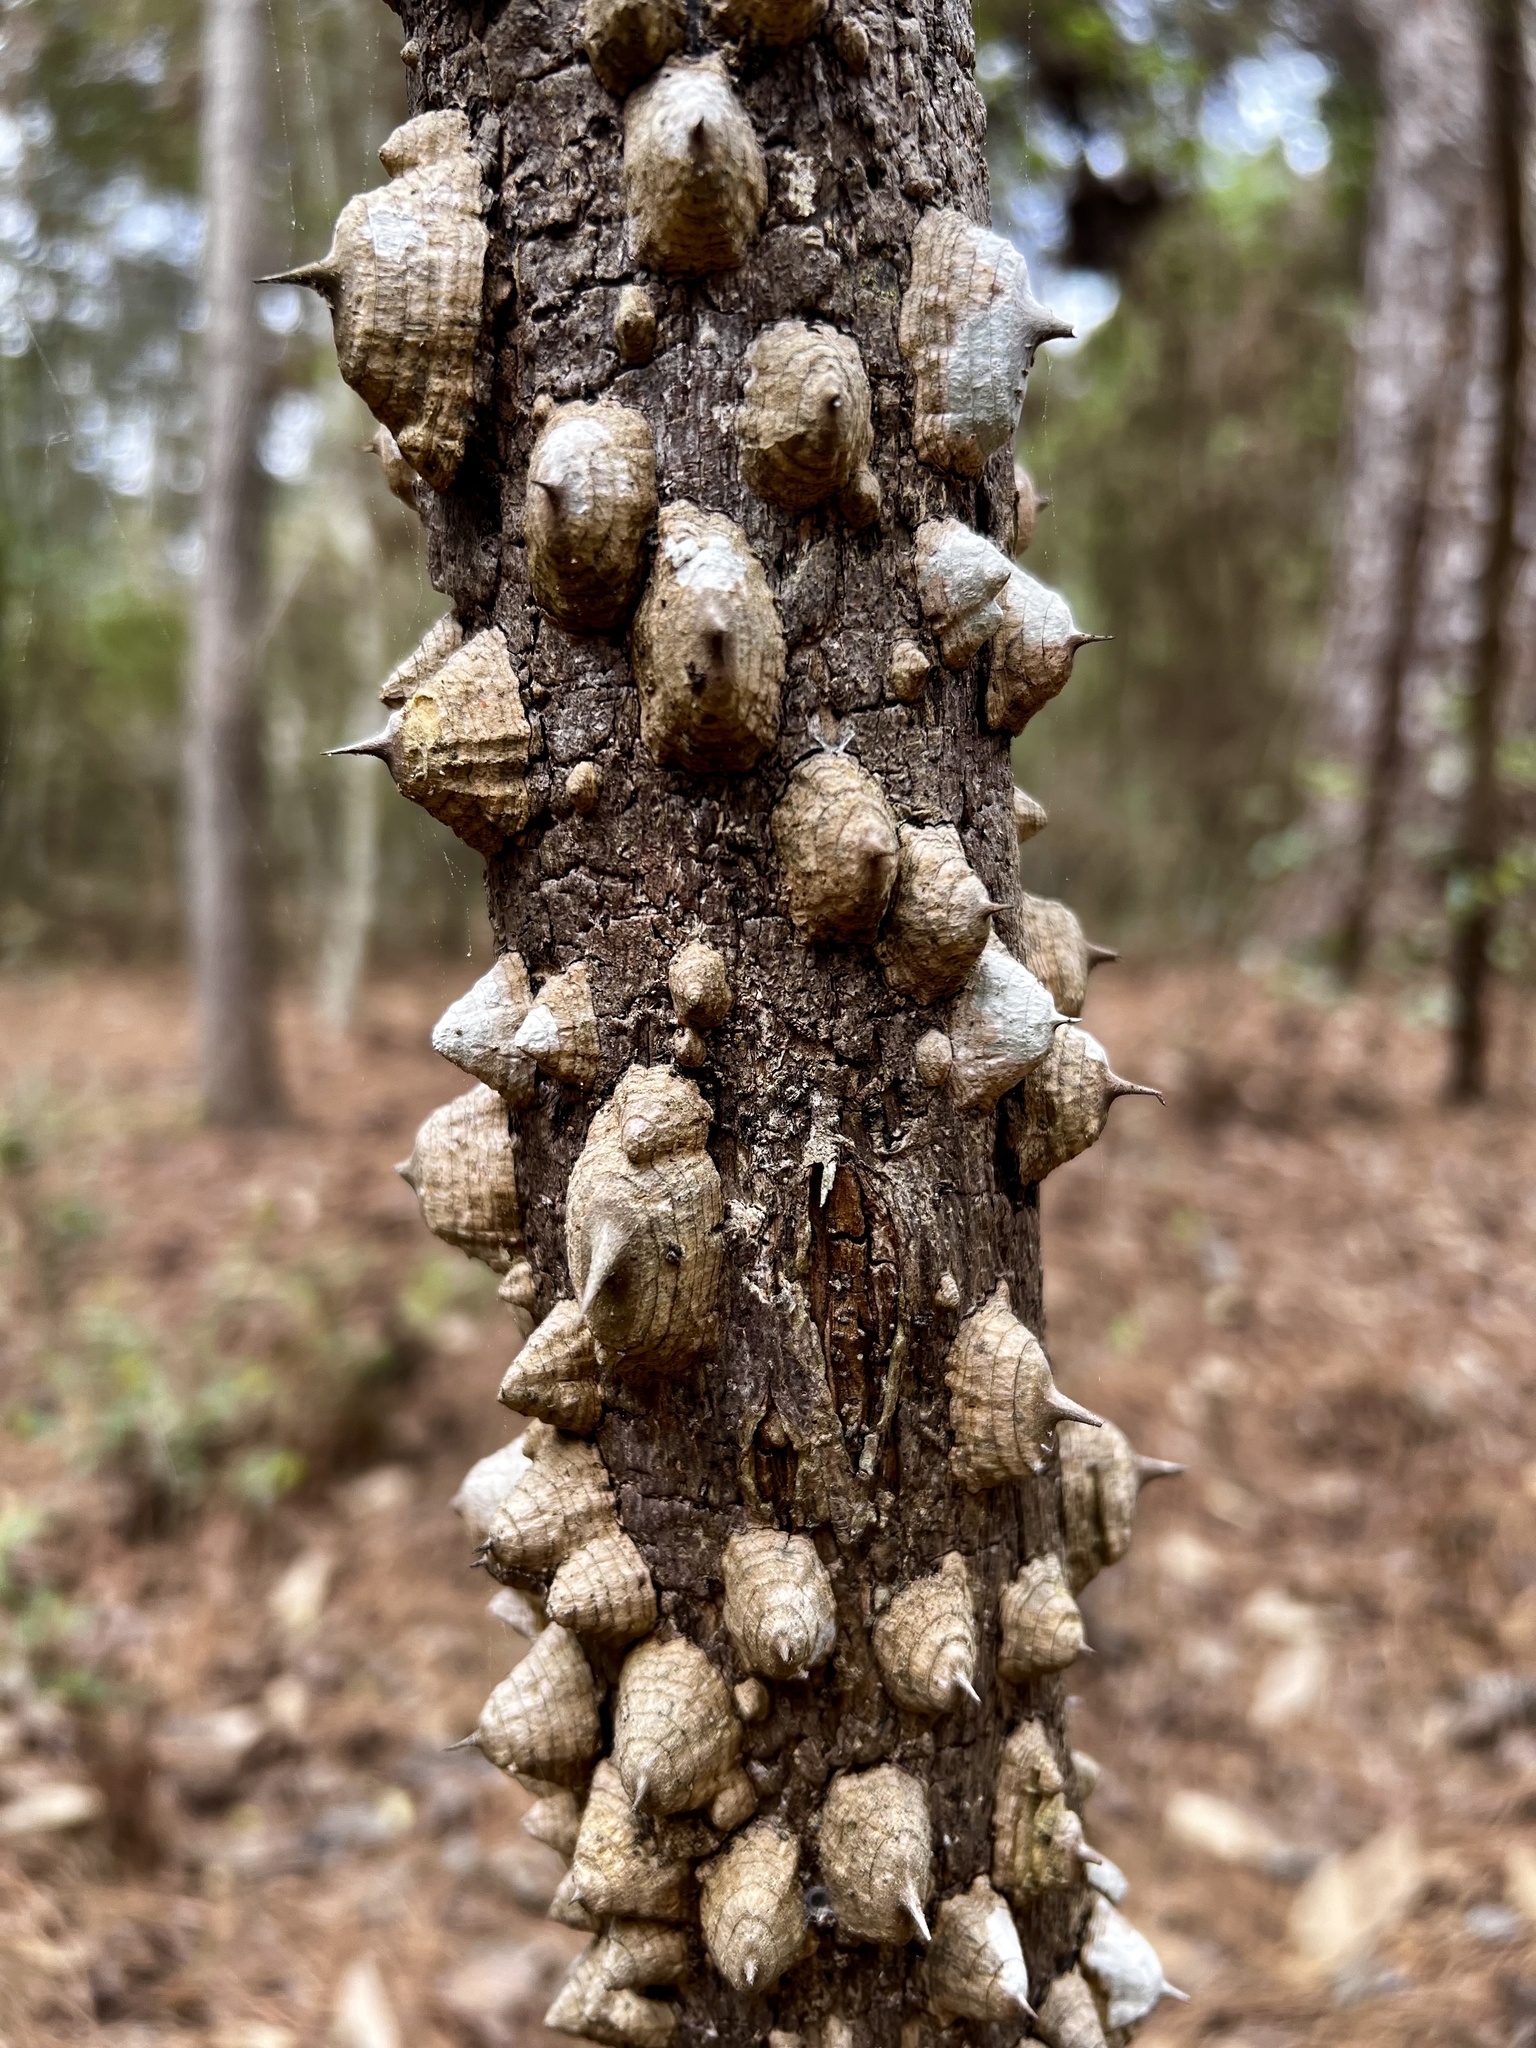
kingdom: Plantae
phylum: Tracheophyta
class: Magnoliopsida
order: Sapindales
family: Rutaceae
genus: Zanthoxylum
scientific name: Zanthoxylum clava-herculis
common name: Hercules'-club
